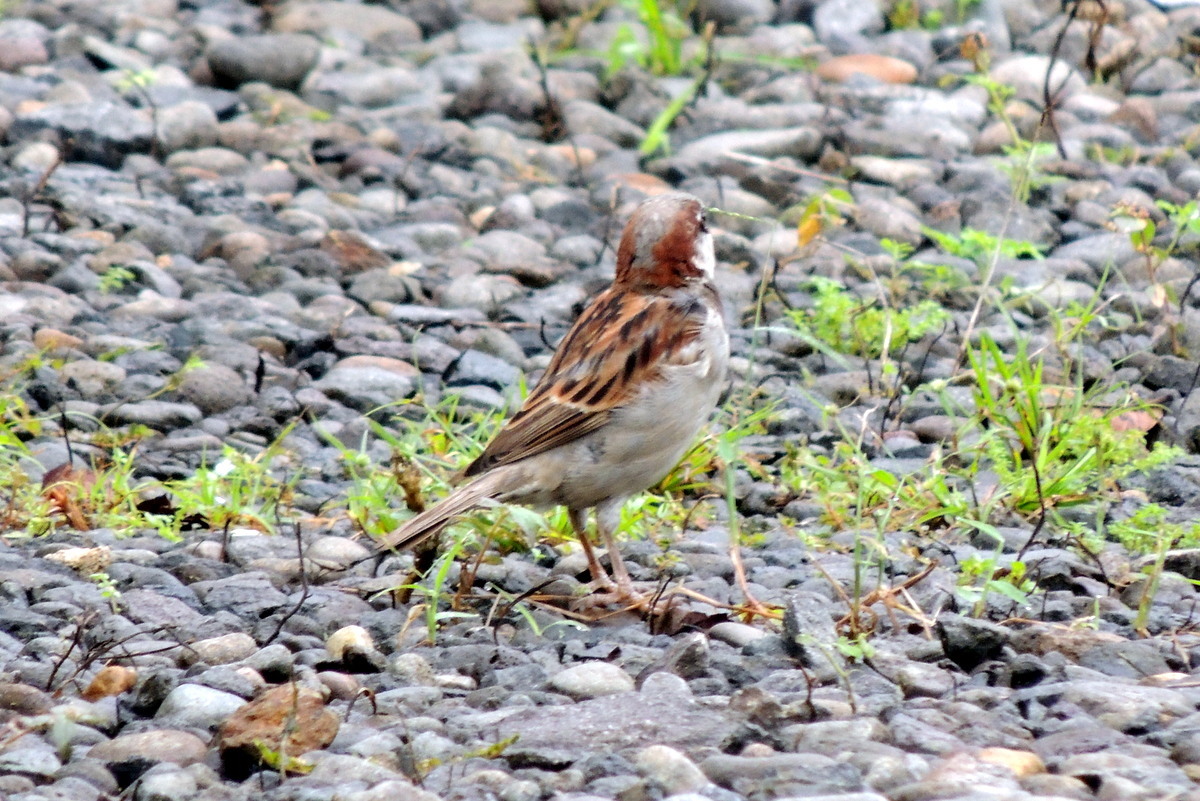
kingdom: Animalia
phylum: Chordata
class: Aves
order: Passeriformes
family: Passeridae
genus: Passer
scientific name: Passer domesticus
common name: House sparrow
